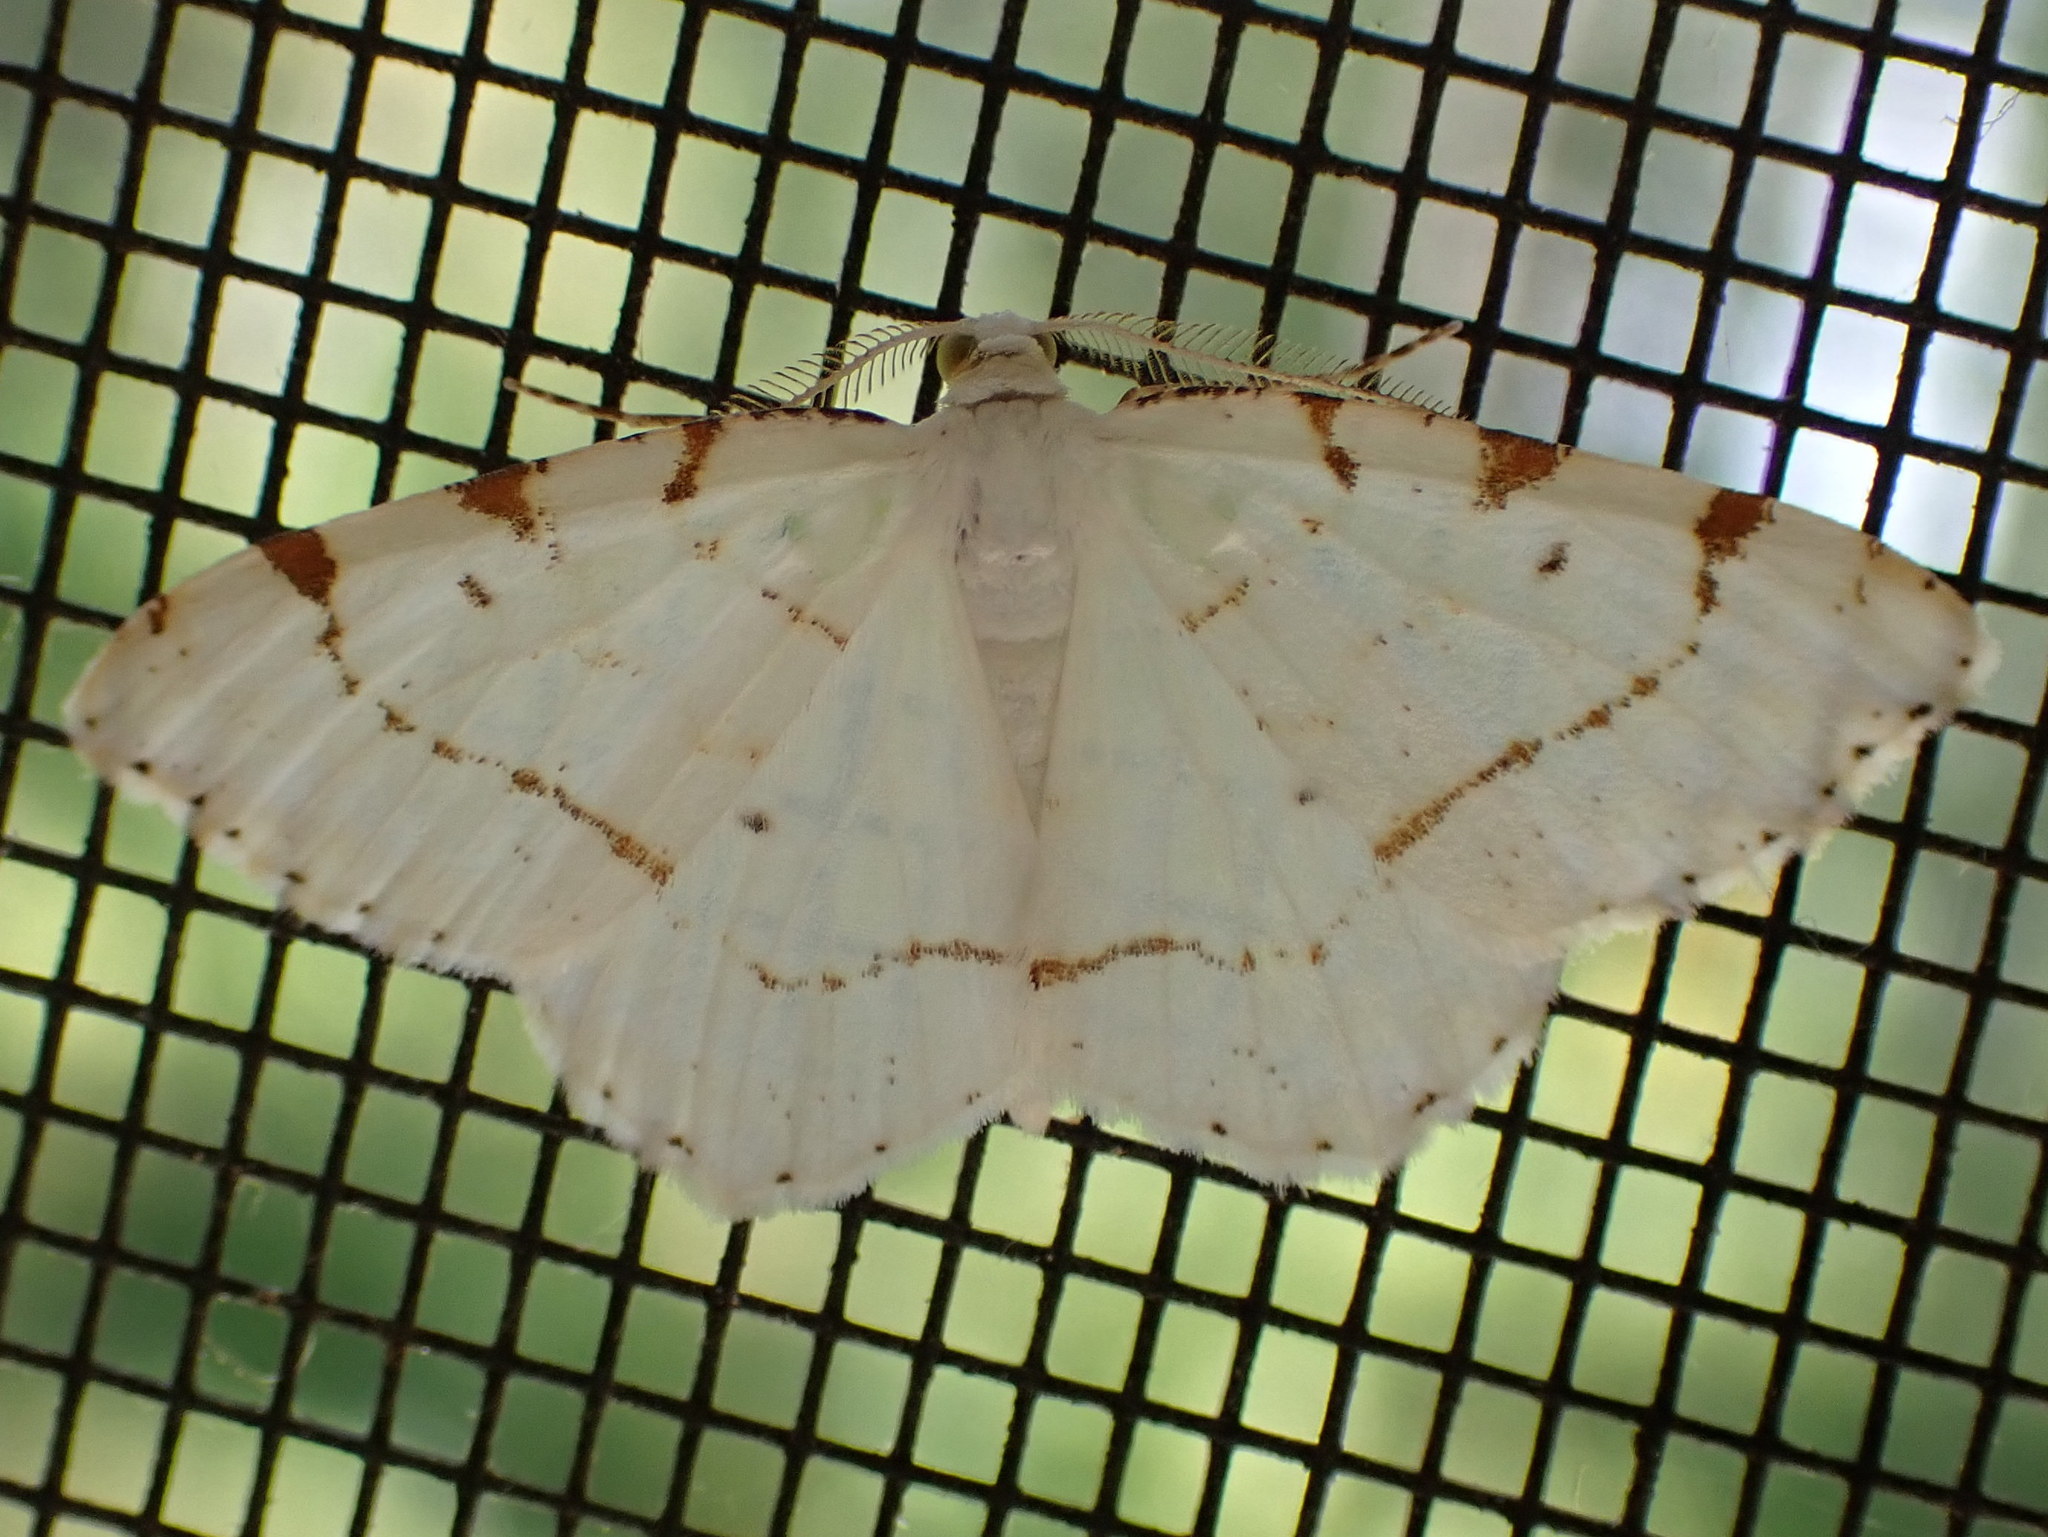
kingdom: Animalia
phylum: Arthropoda
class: Insecta
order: Lepidoptera
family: Geometridae
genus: Macaria
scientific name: Macaria pustularia
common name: Lesser maple spanworm moth
